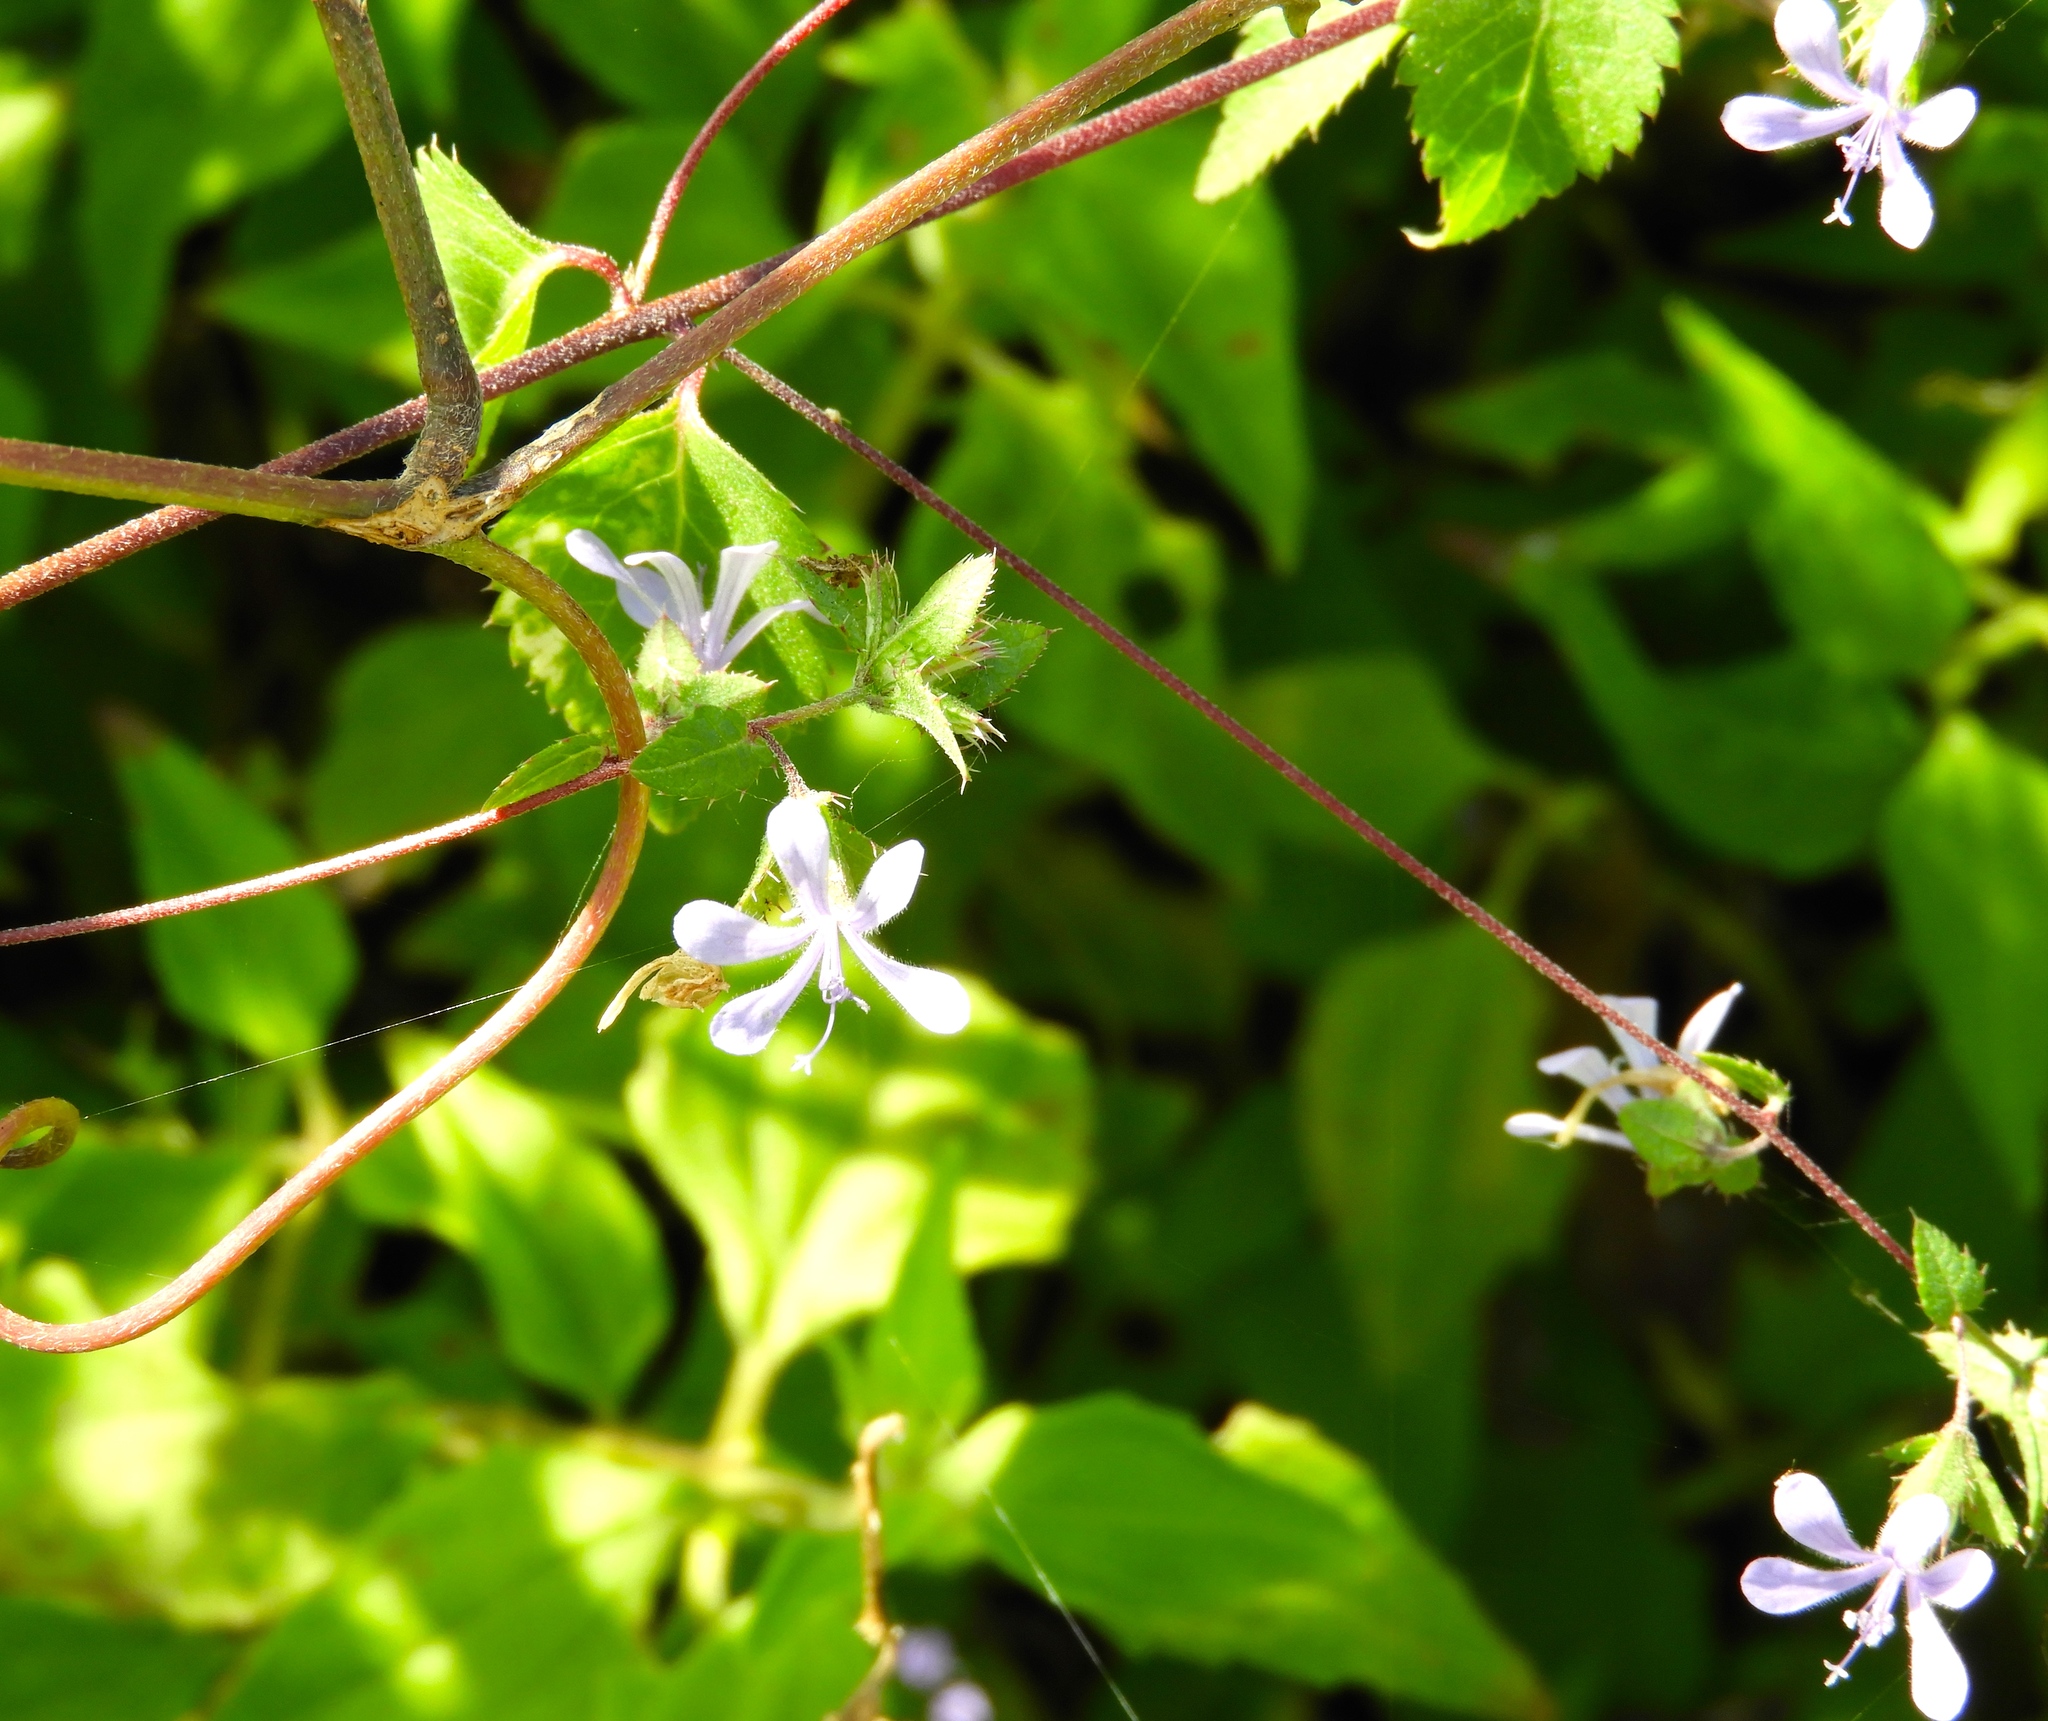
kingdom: Plantae
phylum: Tracheophyta
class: Magnoliopsida
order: Ericales
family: Polemoniaceae
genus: Loeselia
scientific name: Loeselia ciliata
